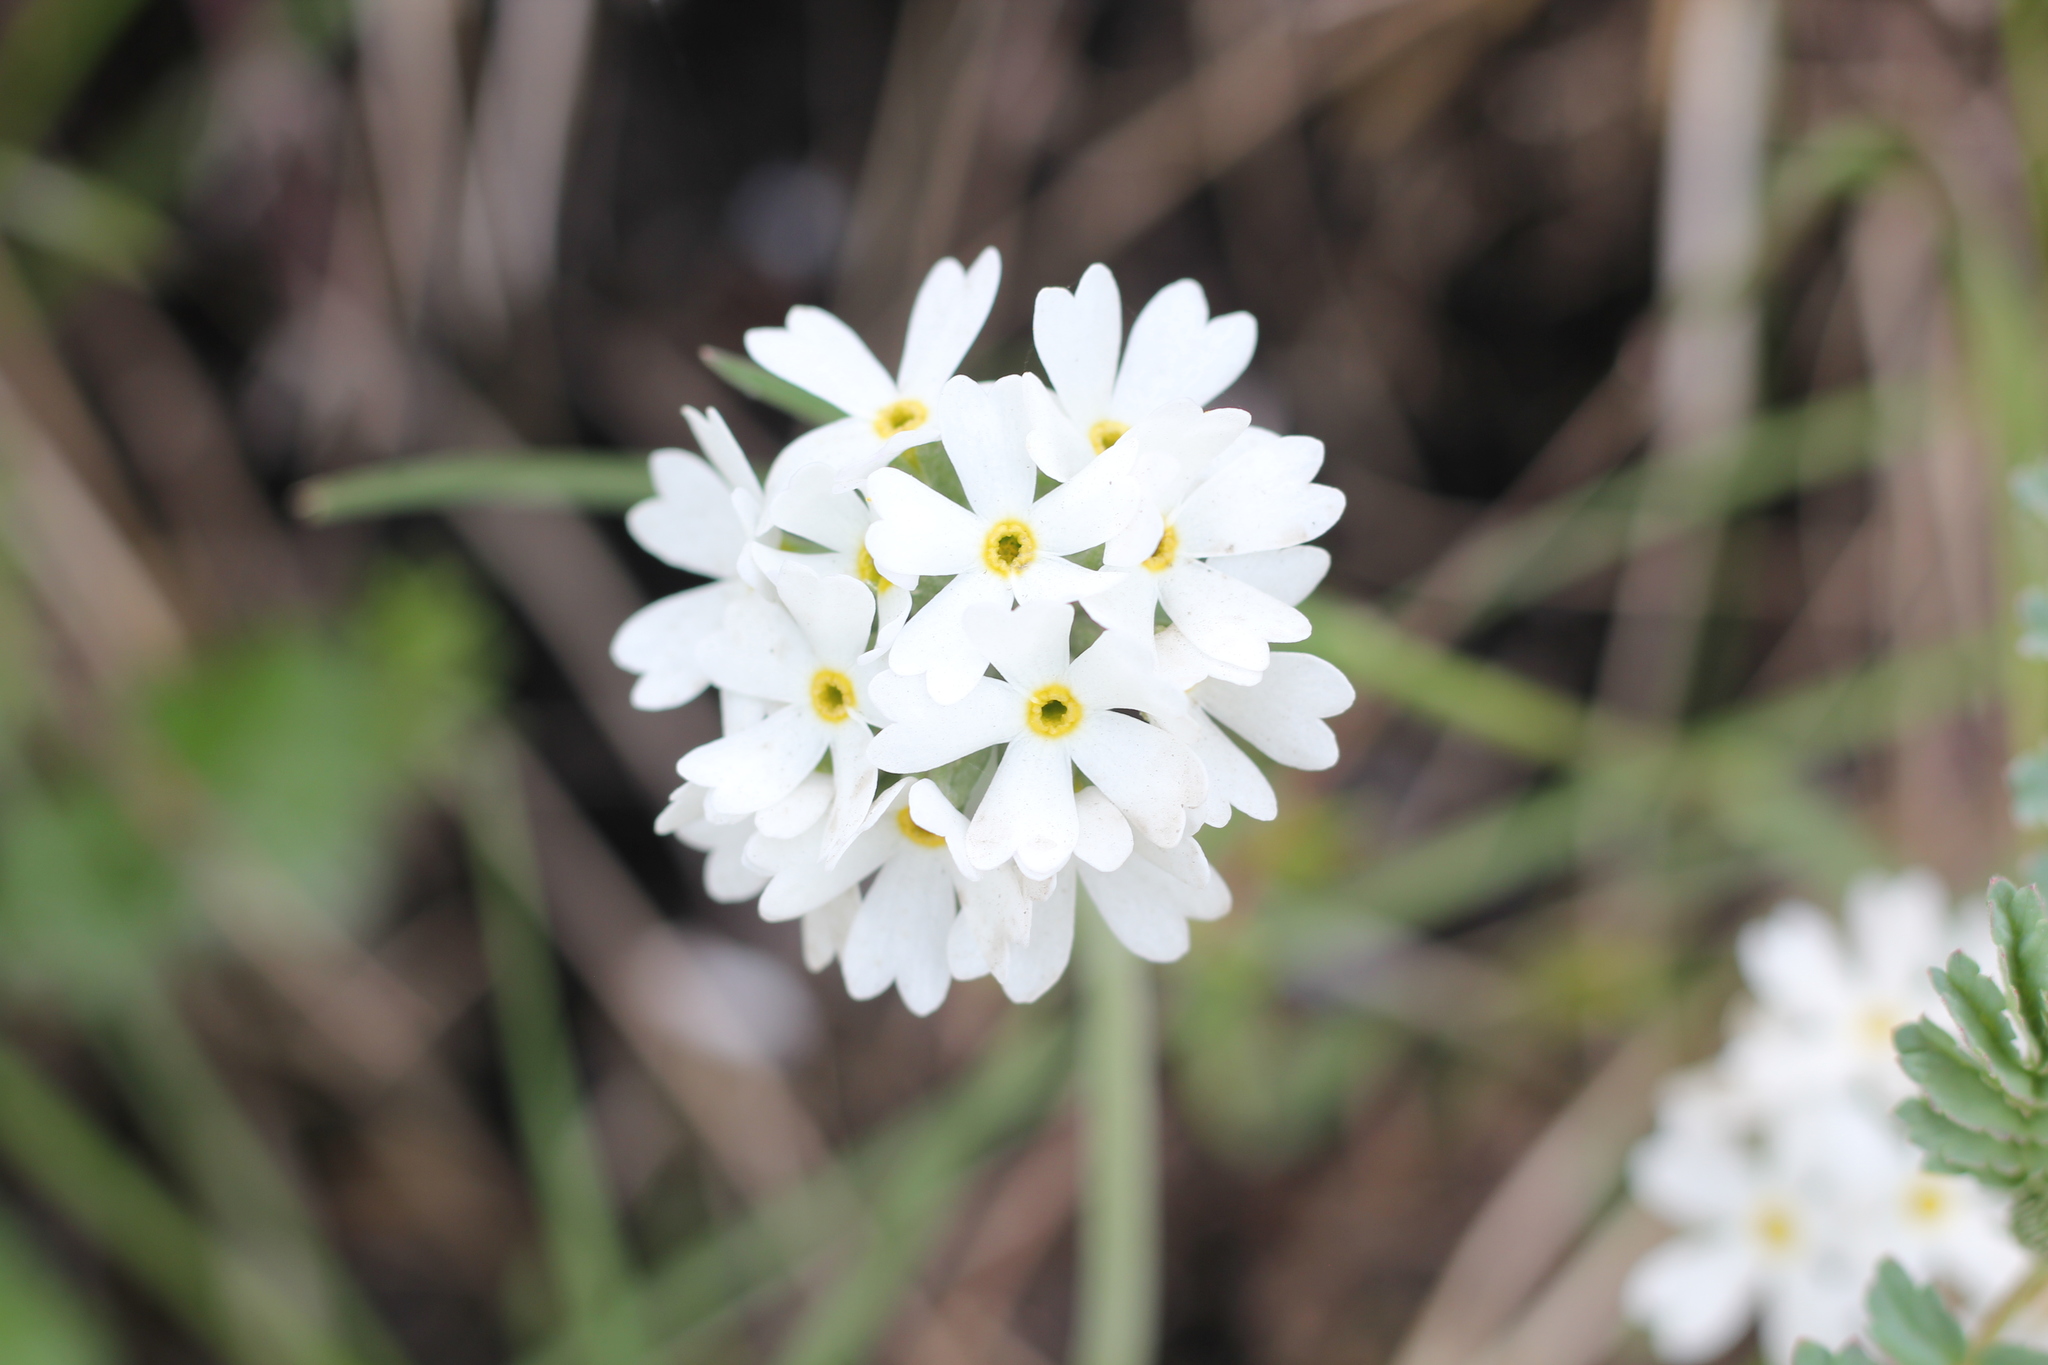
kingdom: Plantae
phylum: Tracheophyta
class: Magnoliopsida
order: Ericales
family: Primulaceae
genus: Primula
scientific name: Primula magellanica
